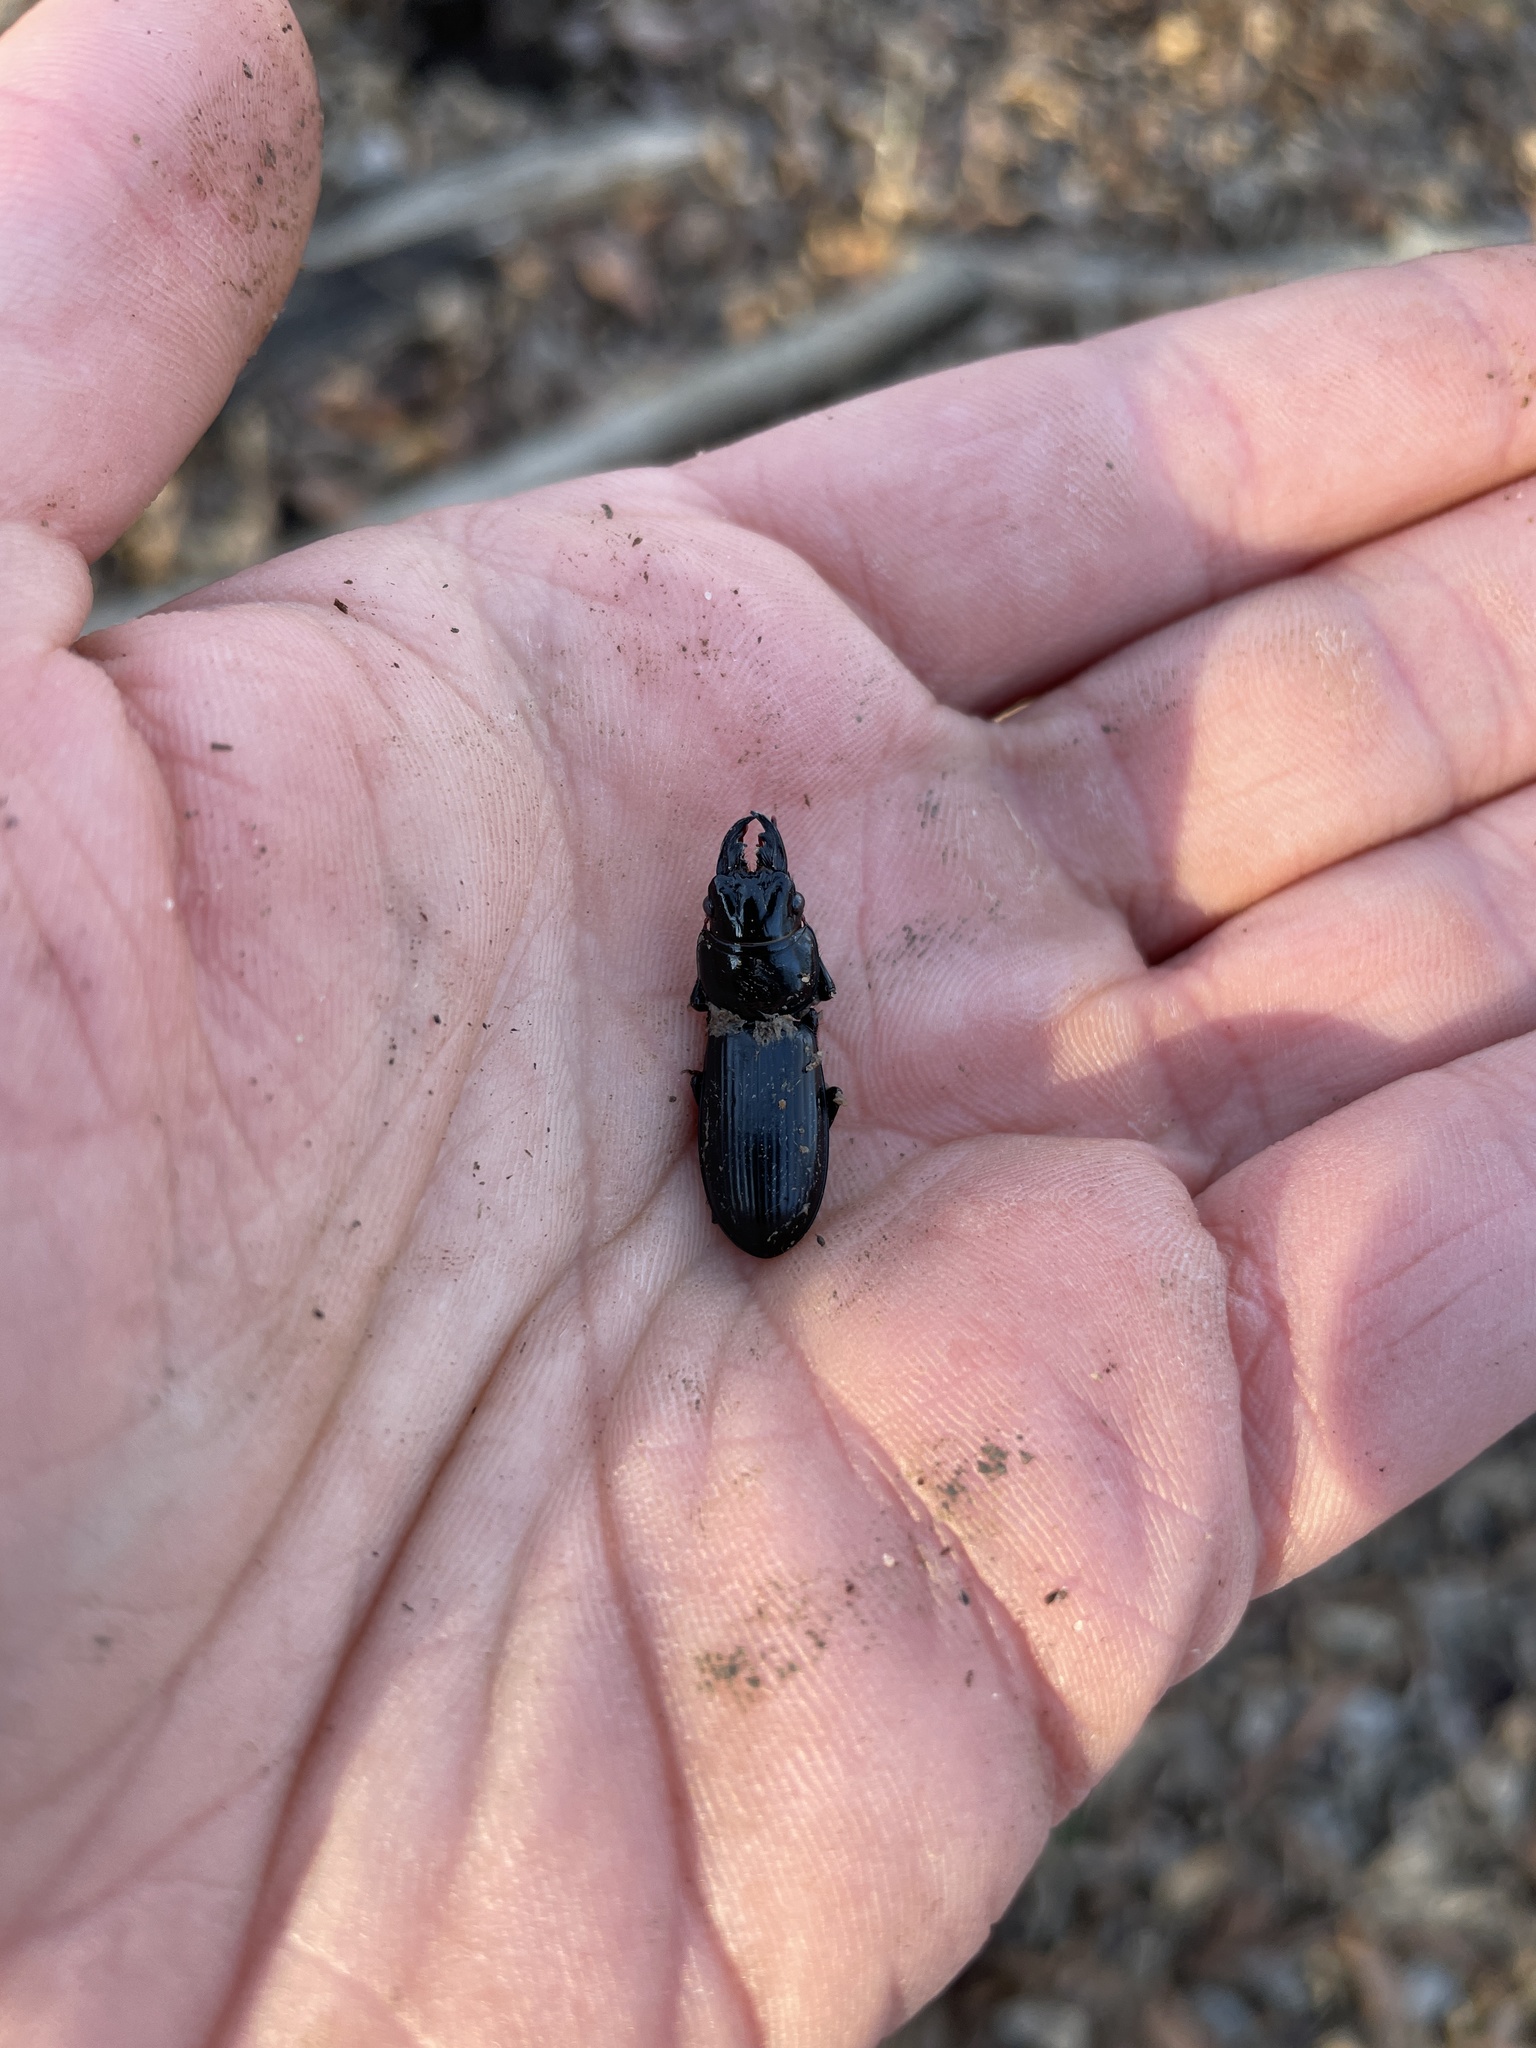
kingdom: Animalia
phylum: Arthropoda
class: Insecta
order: Coleoptera
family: Carabidae
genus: Scarites
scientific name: Scarites subterraneus
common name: Big-headed ground beetle
